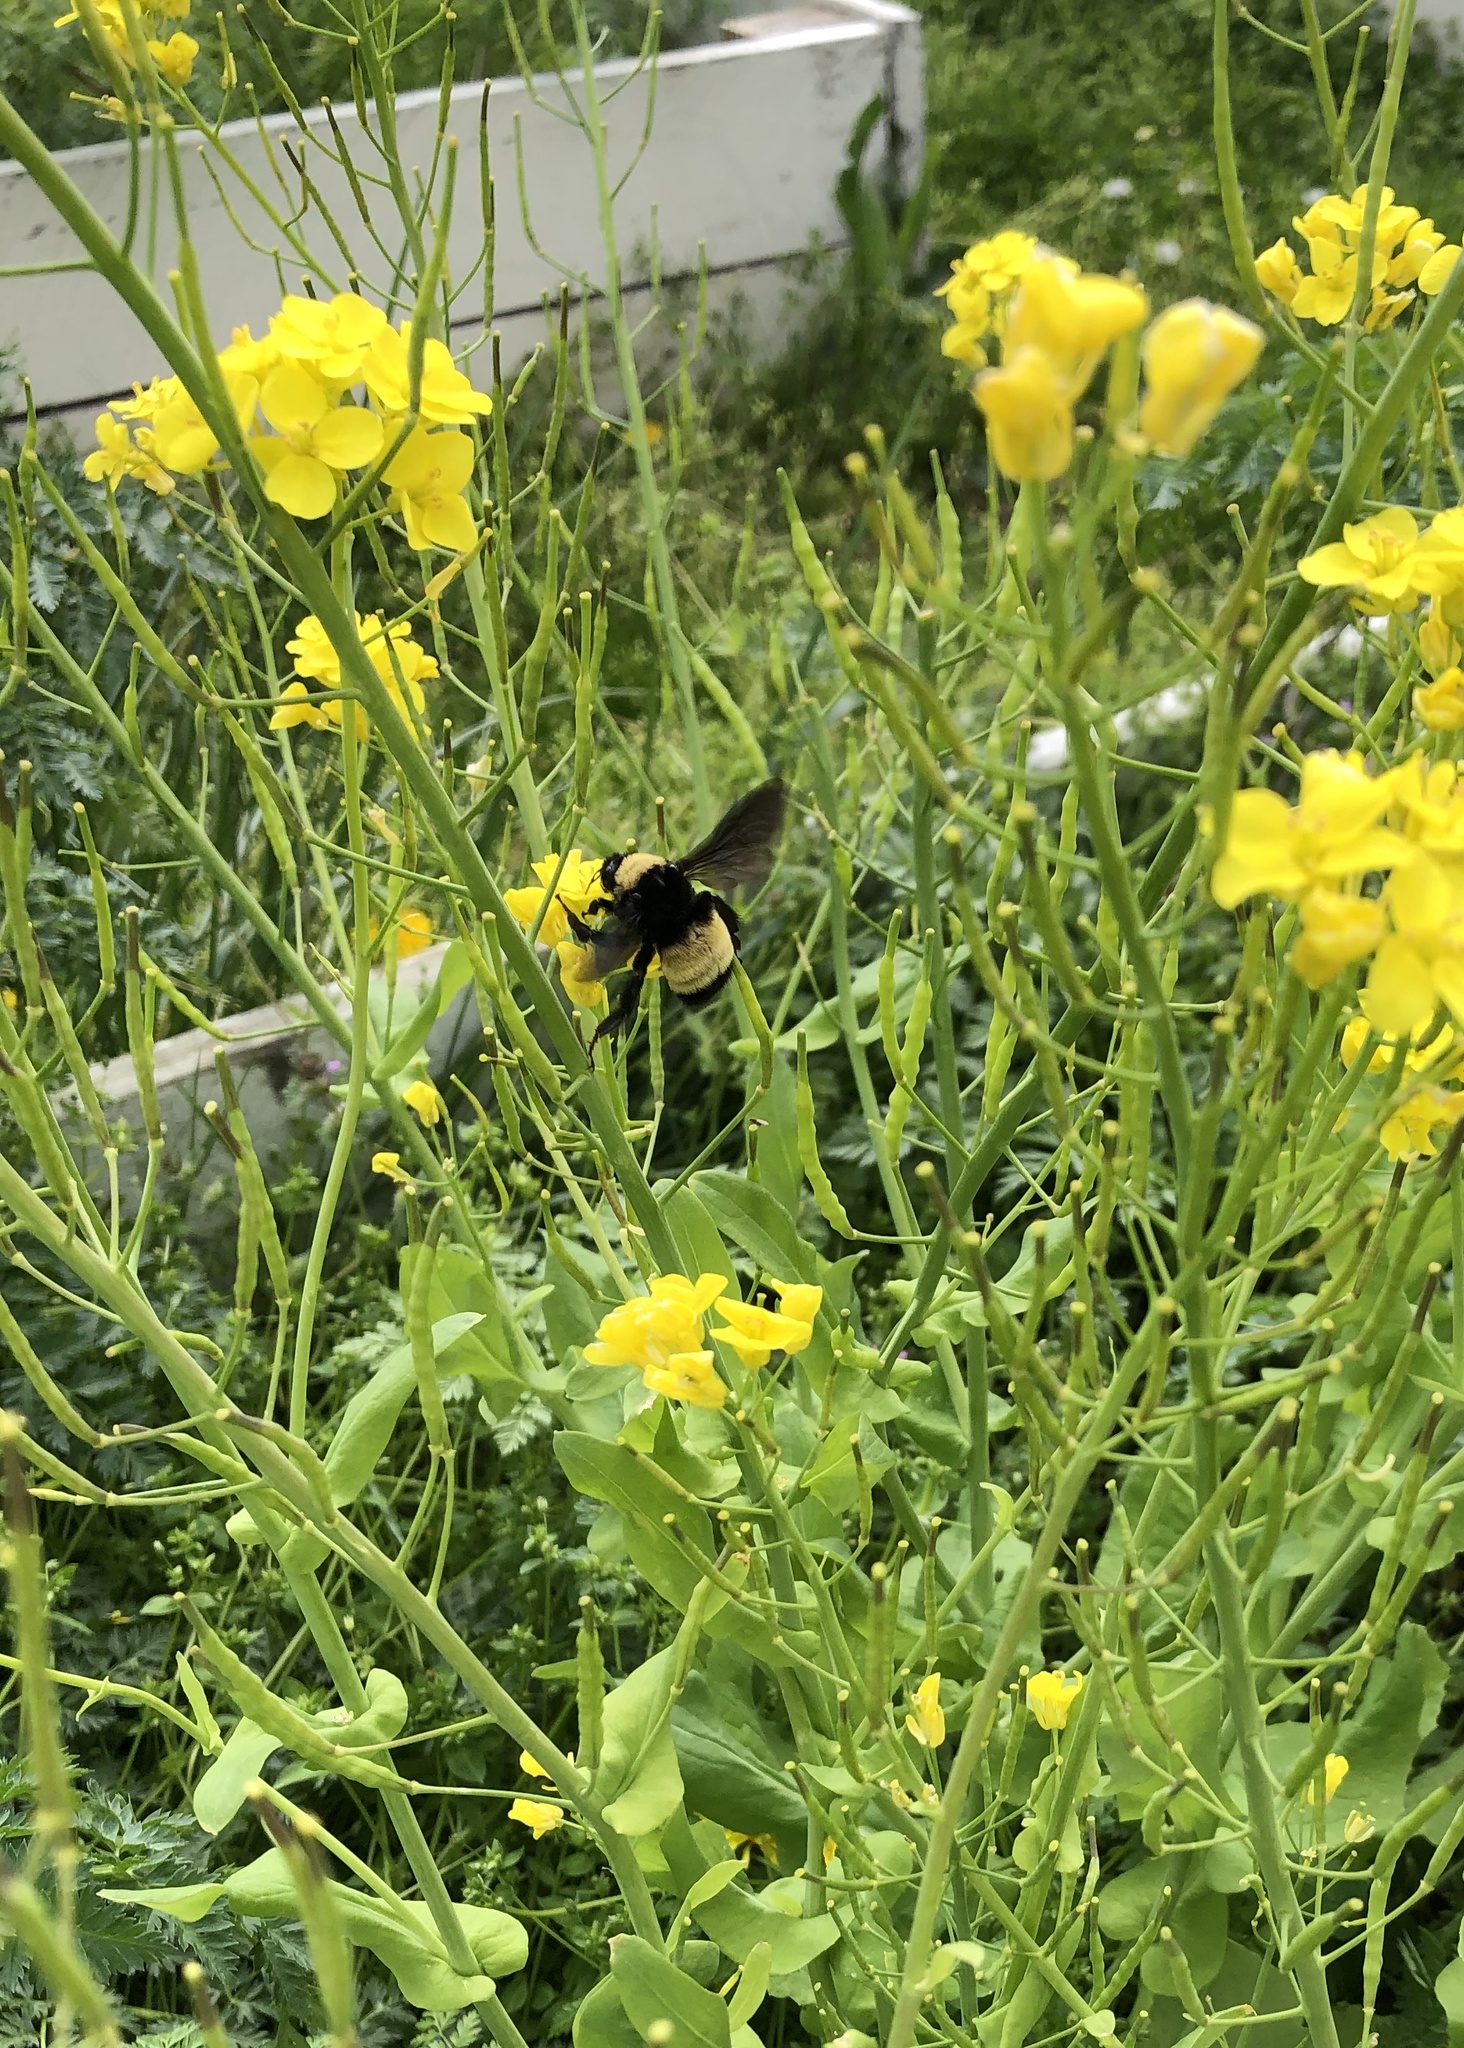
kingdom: Animalia
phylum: Arthropoda
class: Insecta
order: Hymenoptera
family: Apidae
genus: Bombus
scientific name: Bombus pensylvanicus
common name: Bumble bee
